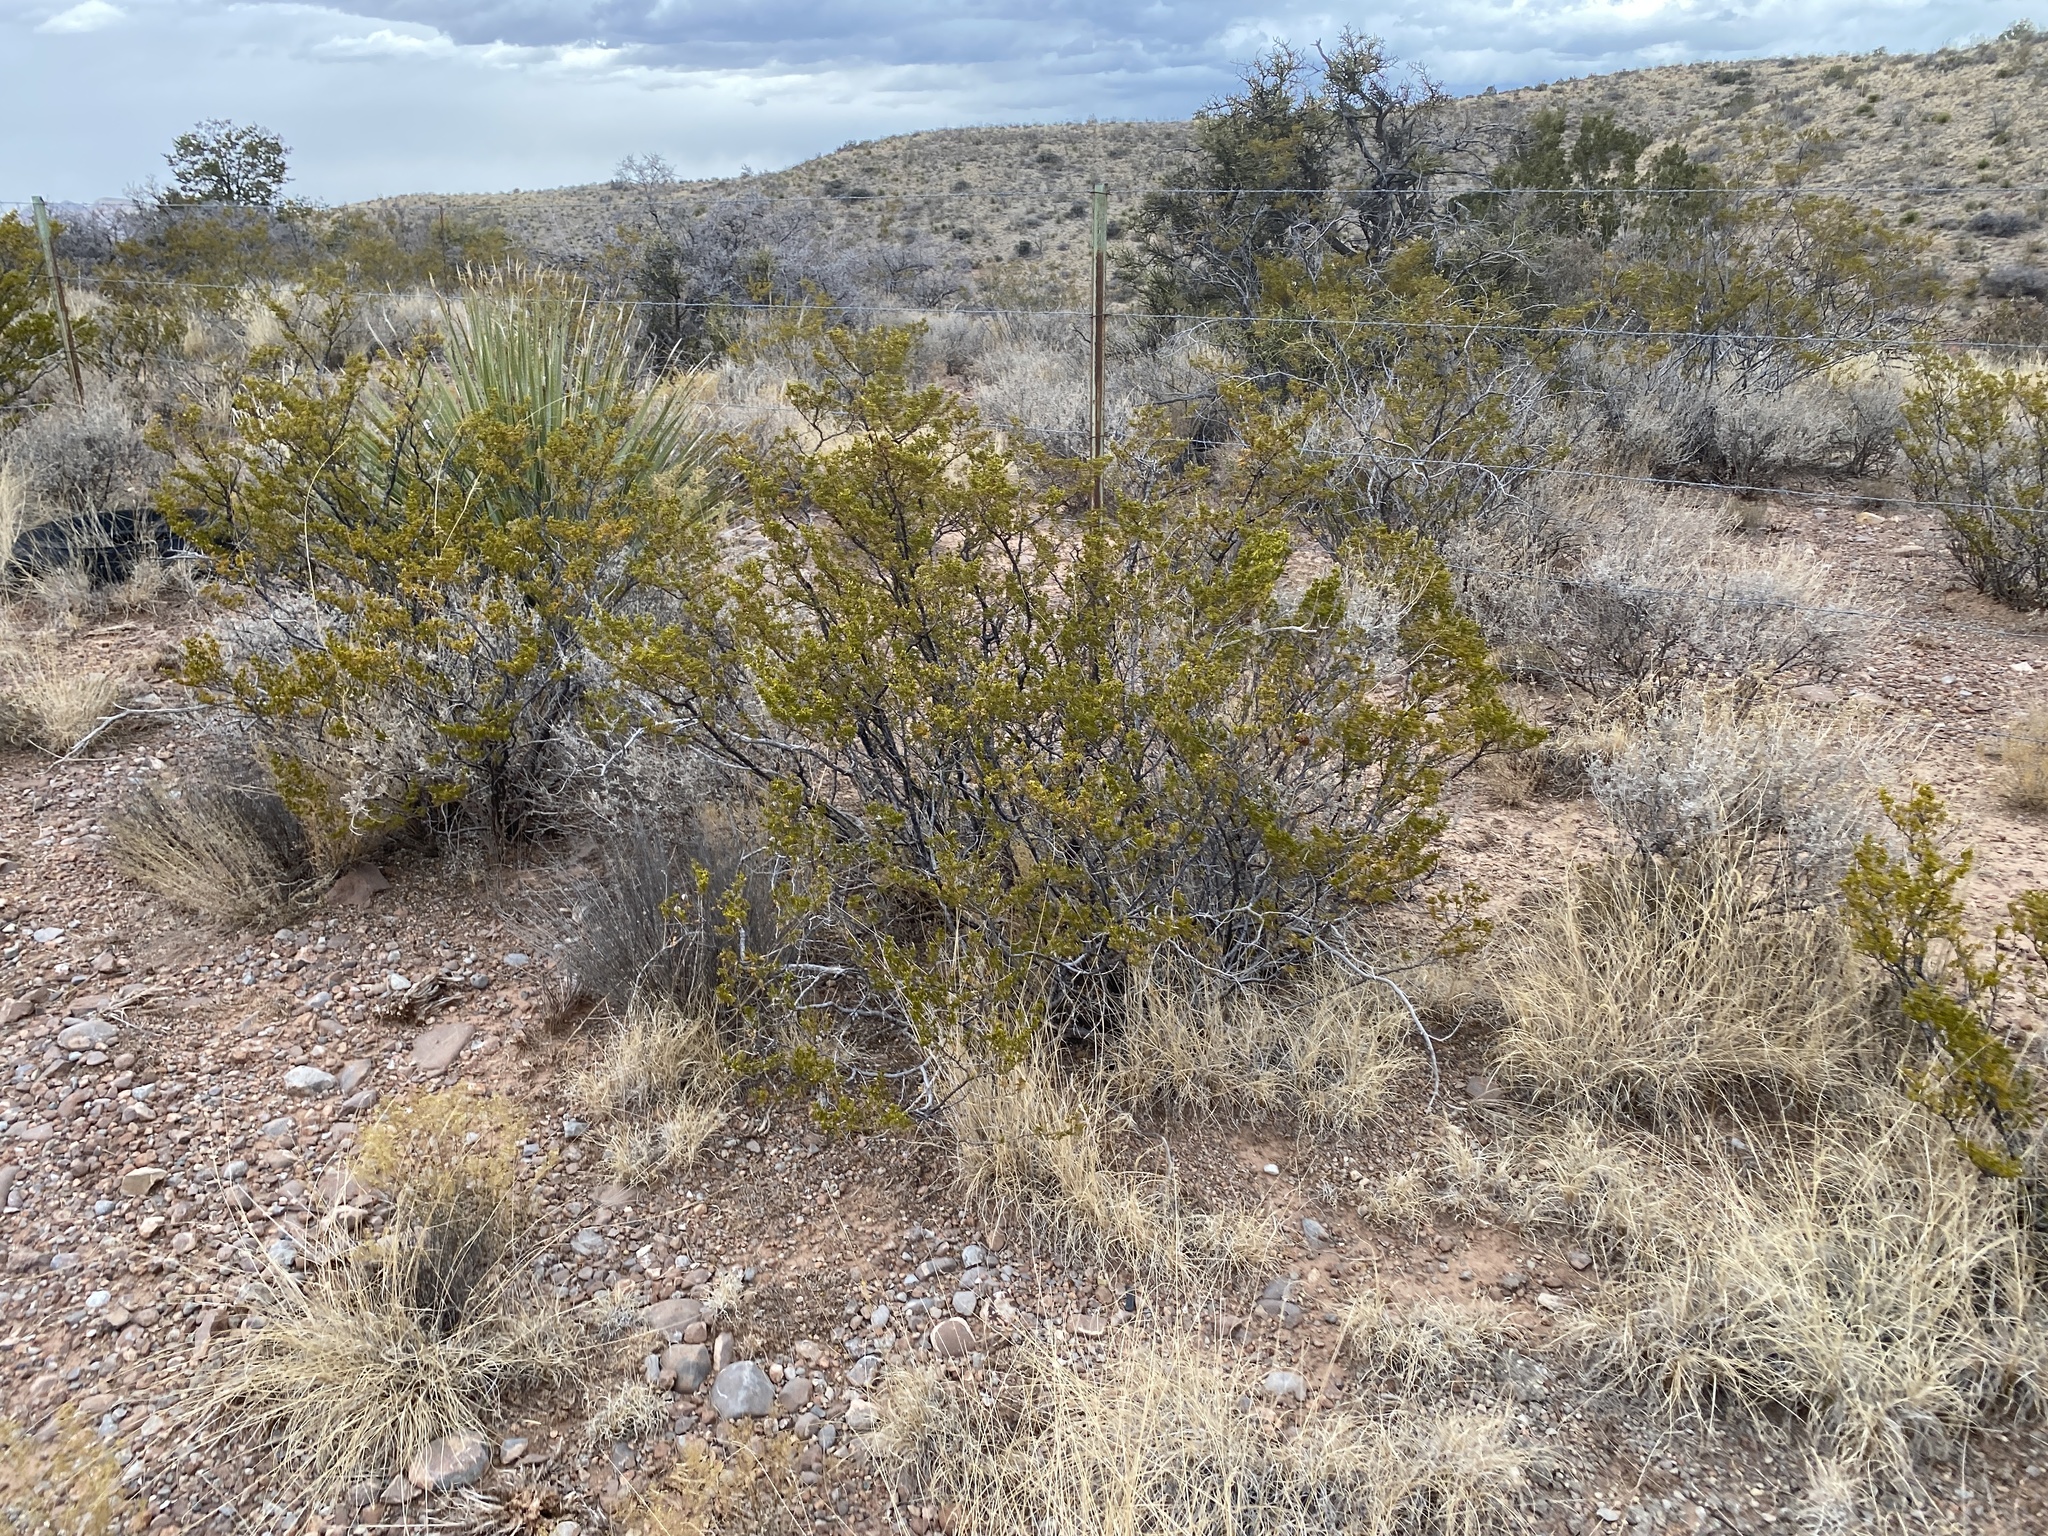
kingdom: Plantae
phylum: Tracheophyta
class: Magnoliopsida
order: Zygophyllales
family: Zygophyllaceae
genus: Larrea
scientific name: Larrea tridentata
